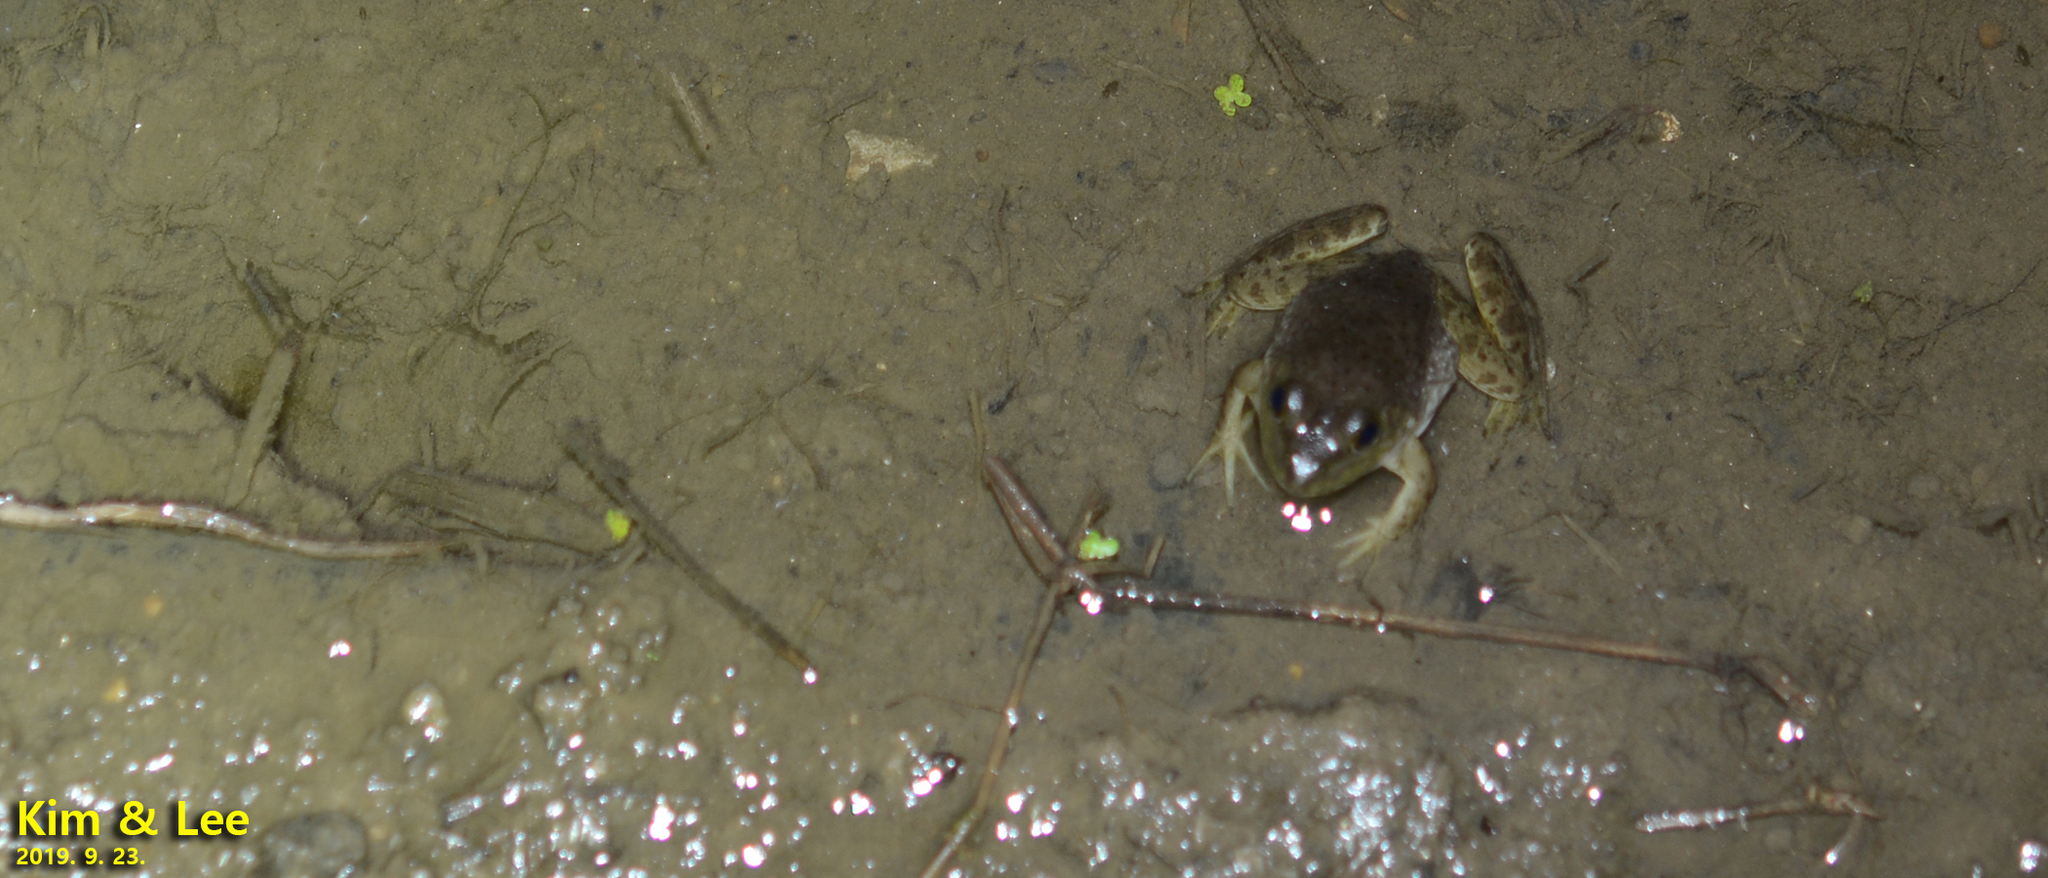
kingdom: Animalia
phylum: Chordata
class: Amphibia
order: Anura
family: Ranidae
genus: Lithobates
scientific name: Lithobates catesbeianus
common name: American bullfrog
